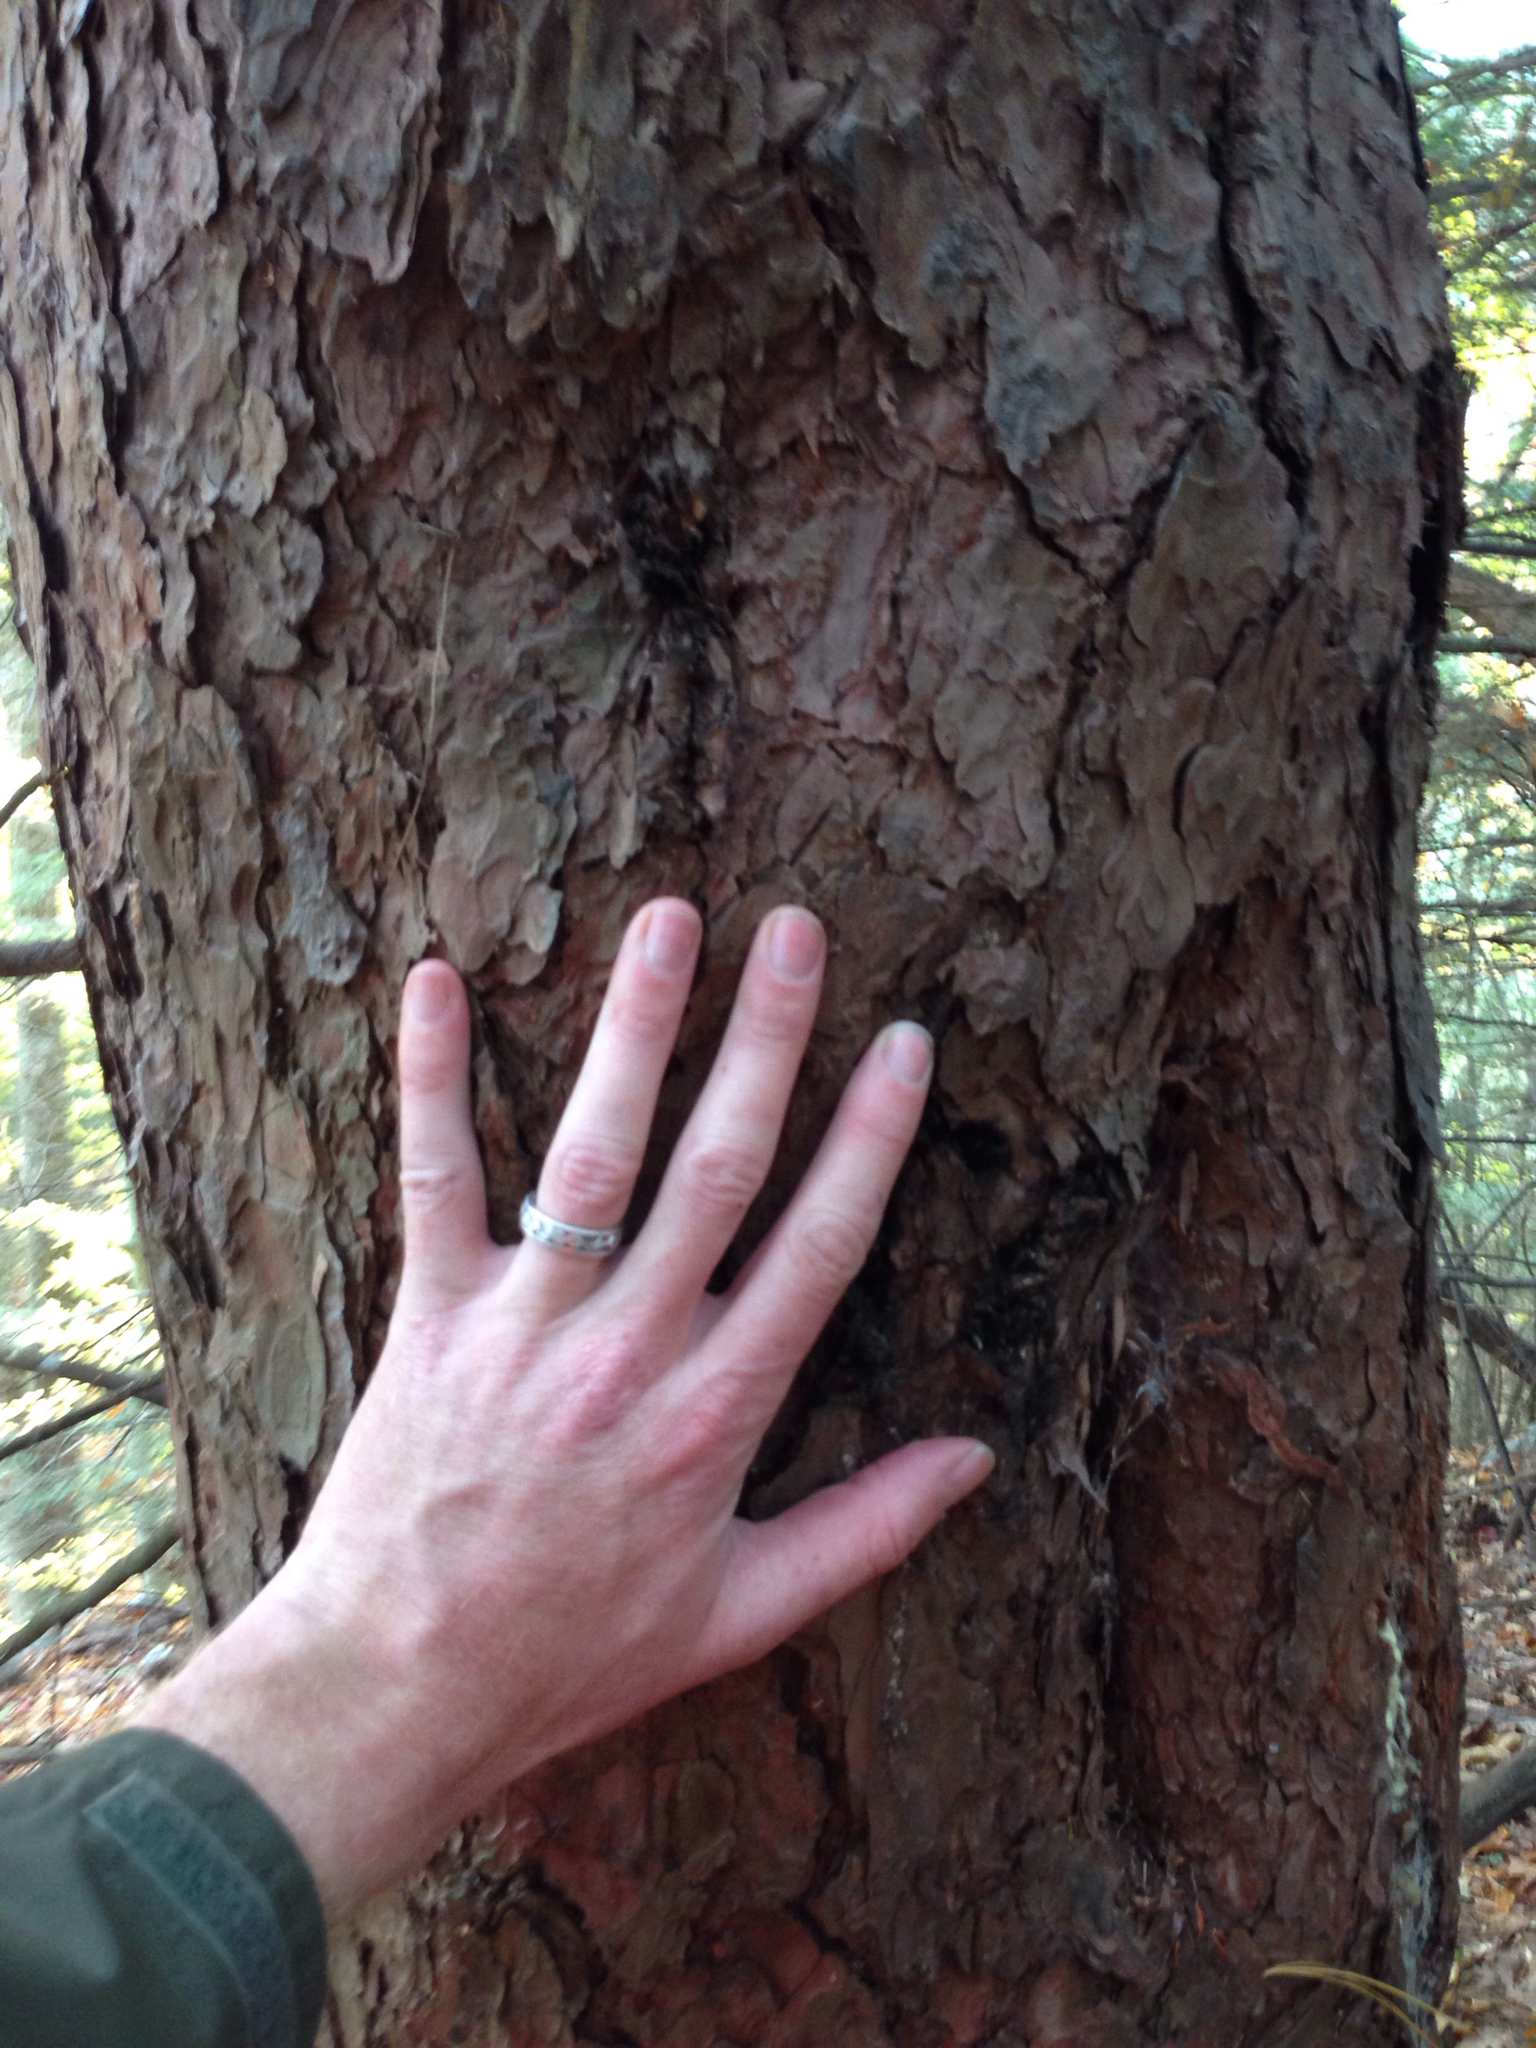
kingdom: Plantae
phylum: Tracheophyta
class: Pinopsida
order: Pinales
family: Pinaceae
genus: Pinus
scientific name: Pinus resinosa
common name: Norway pine
